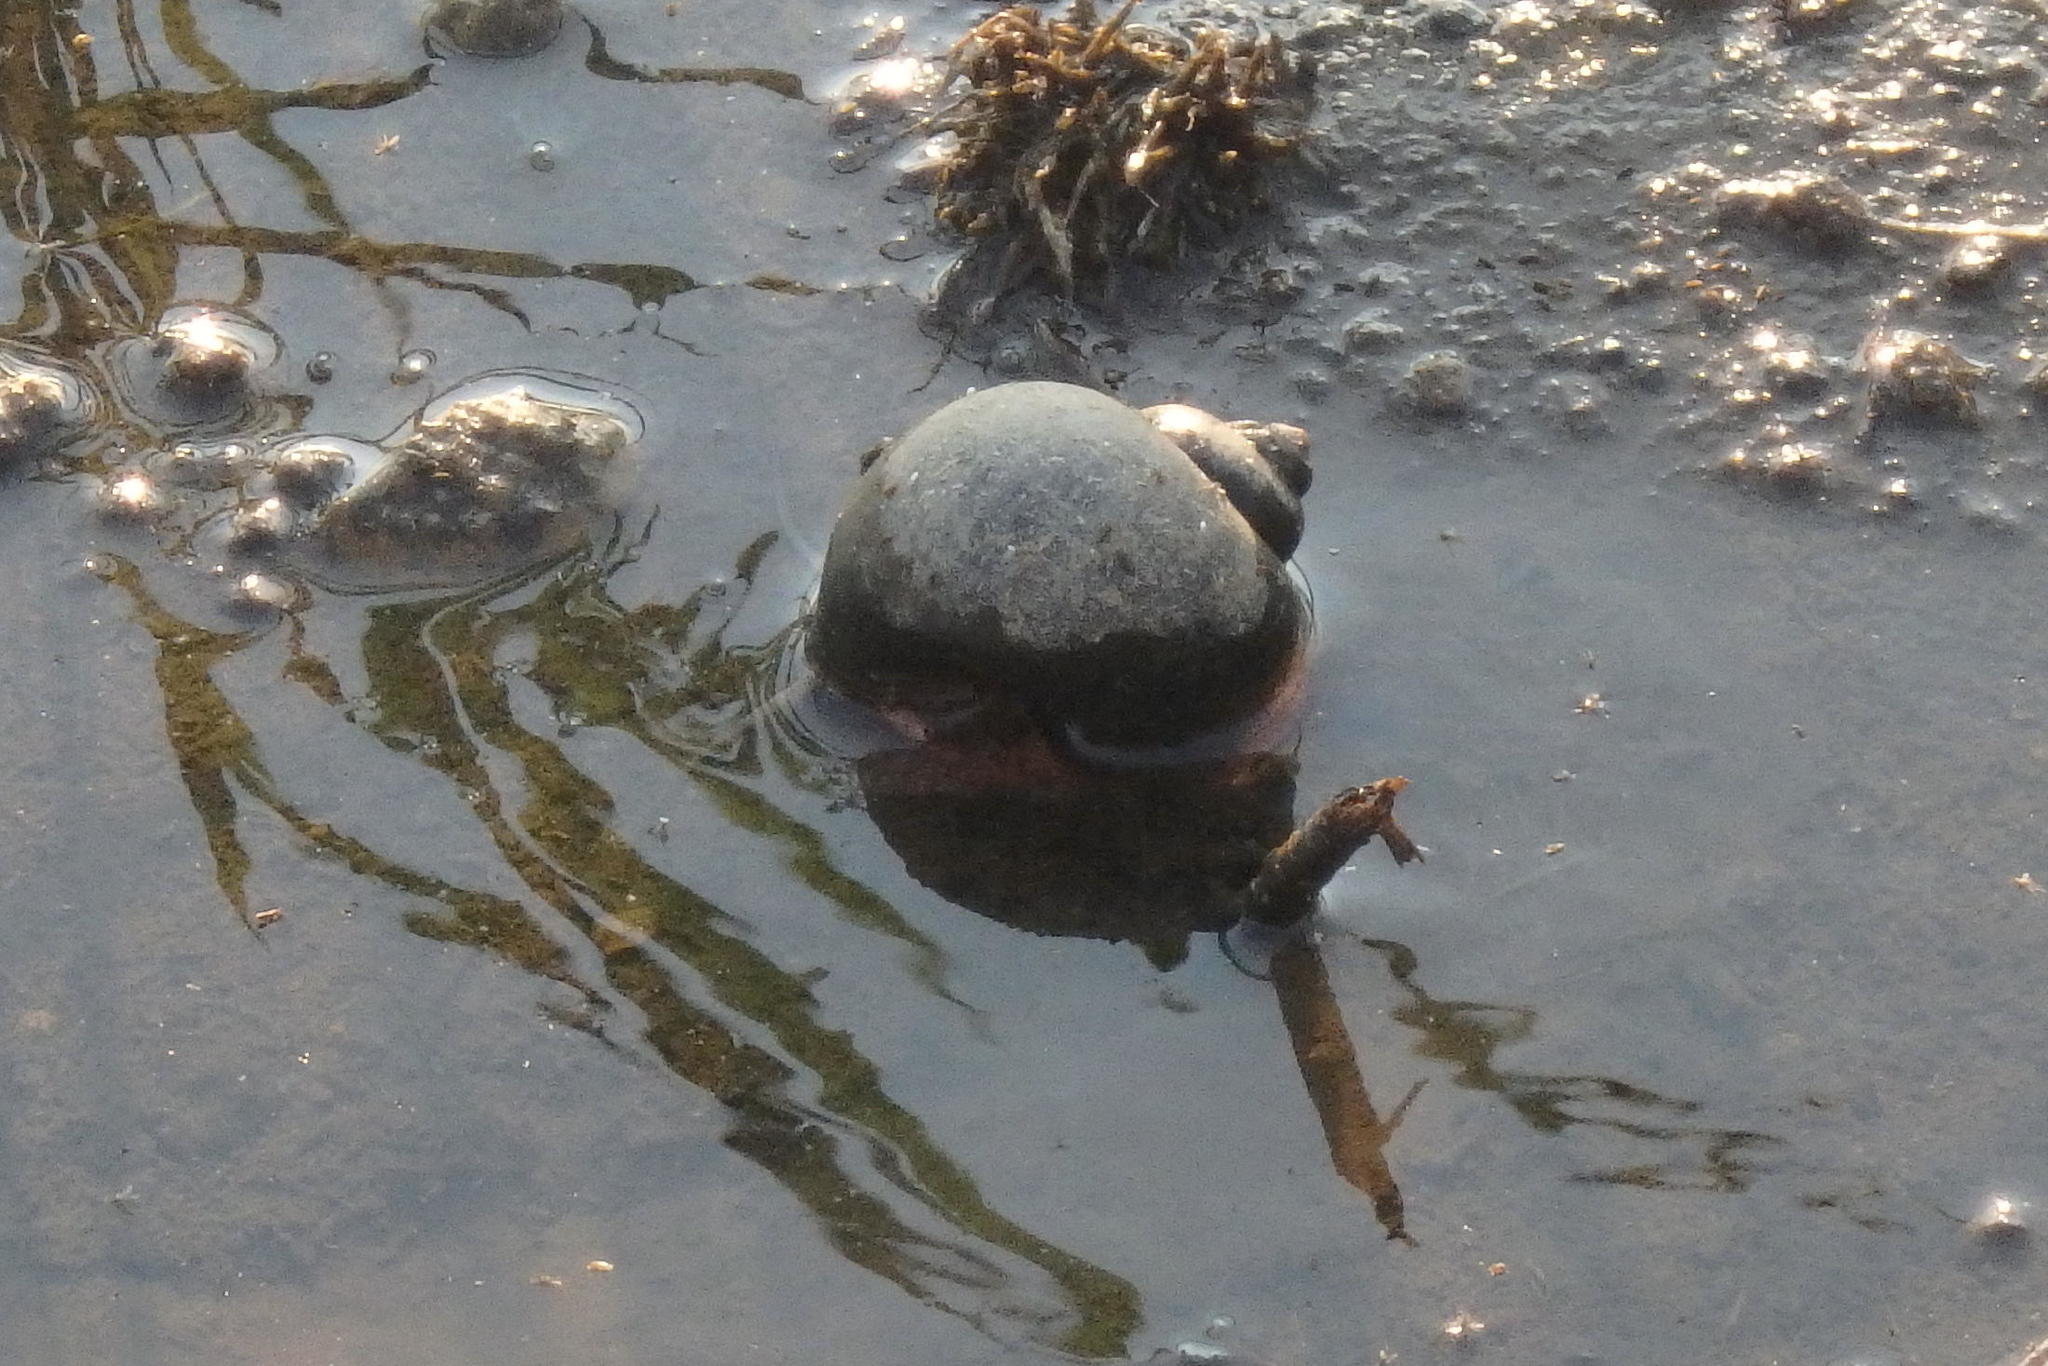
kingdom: Animalia
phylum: Mollusca
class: Gastropoda
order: Architaenioglossa
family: Ampullariidae
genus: Pomacea
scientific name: Pomacea canaliculata
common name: Channeled applesnail
